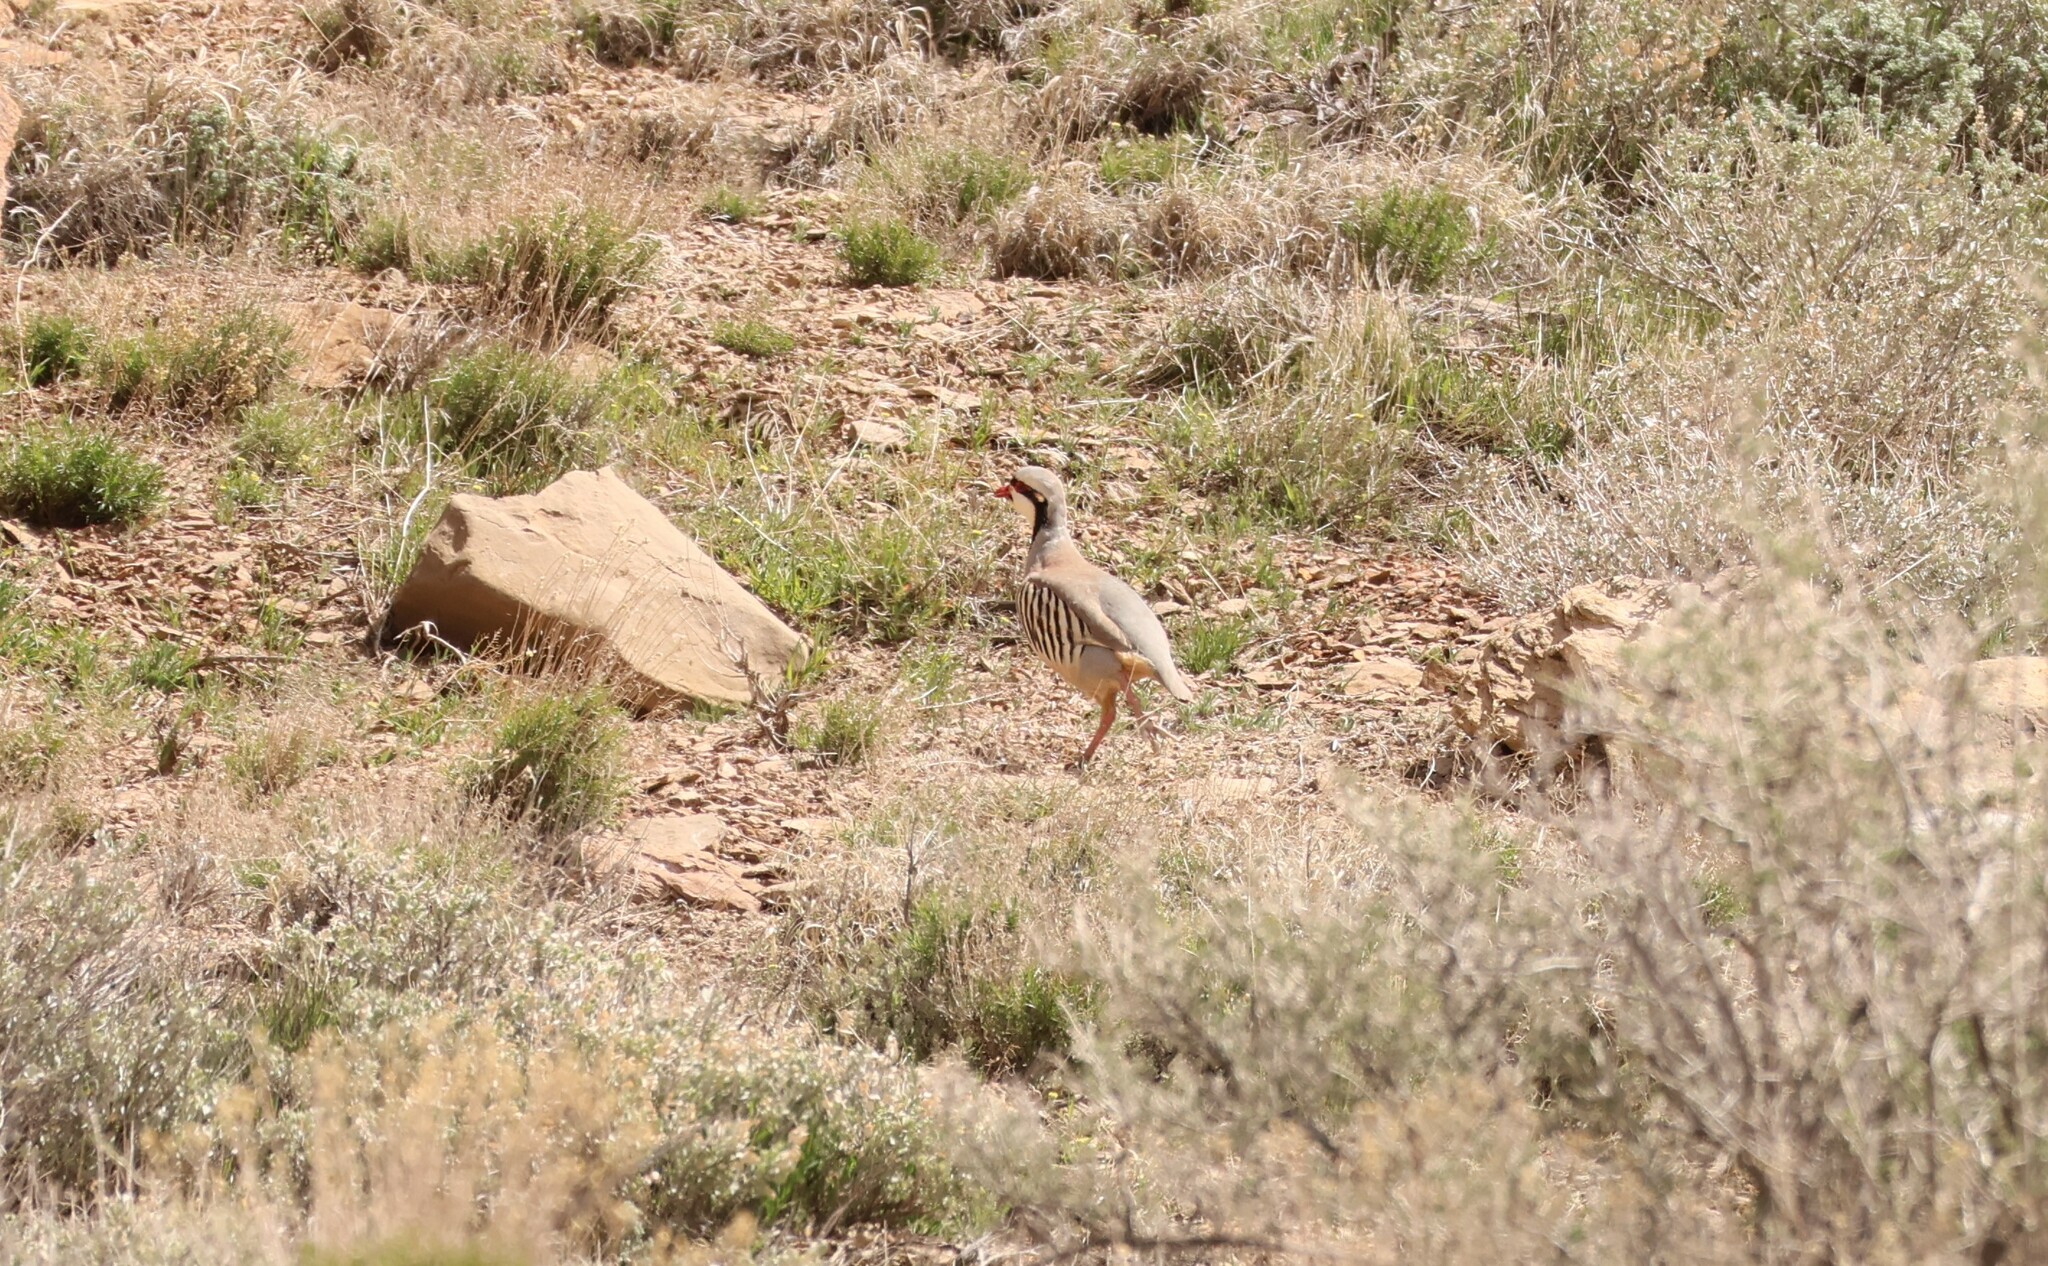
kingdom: Animalia
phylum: Chordata
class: Aves
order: Galliformes
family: Phasianidae
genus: Alectoris
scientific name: Alectoris chukar
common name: Chukar
